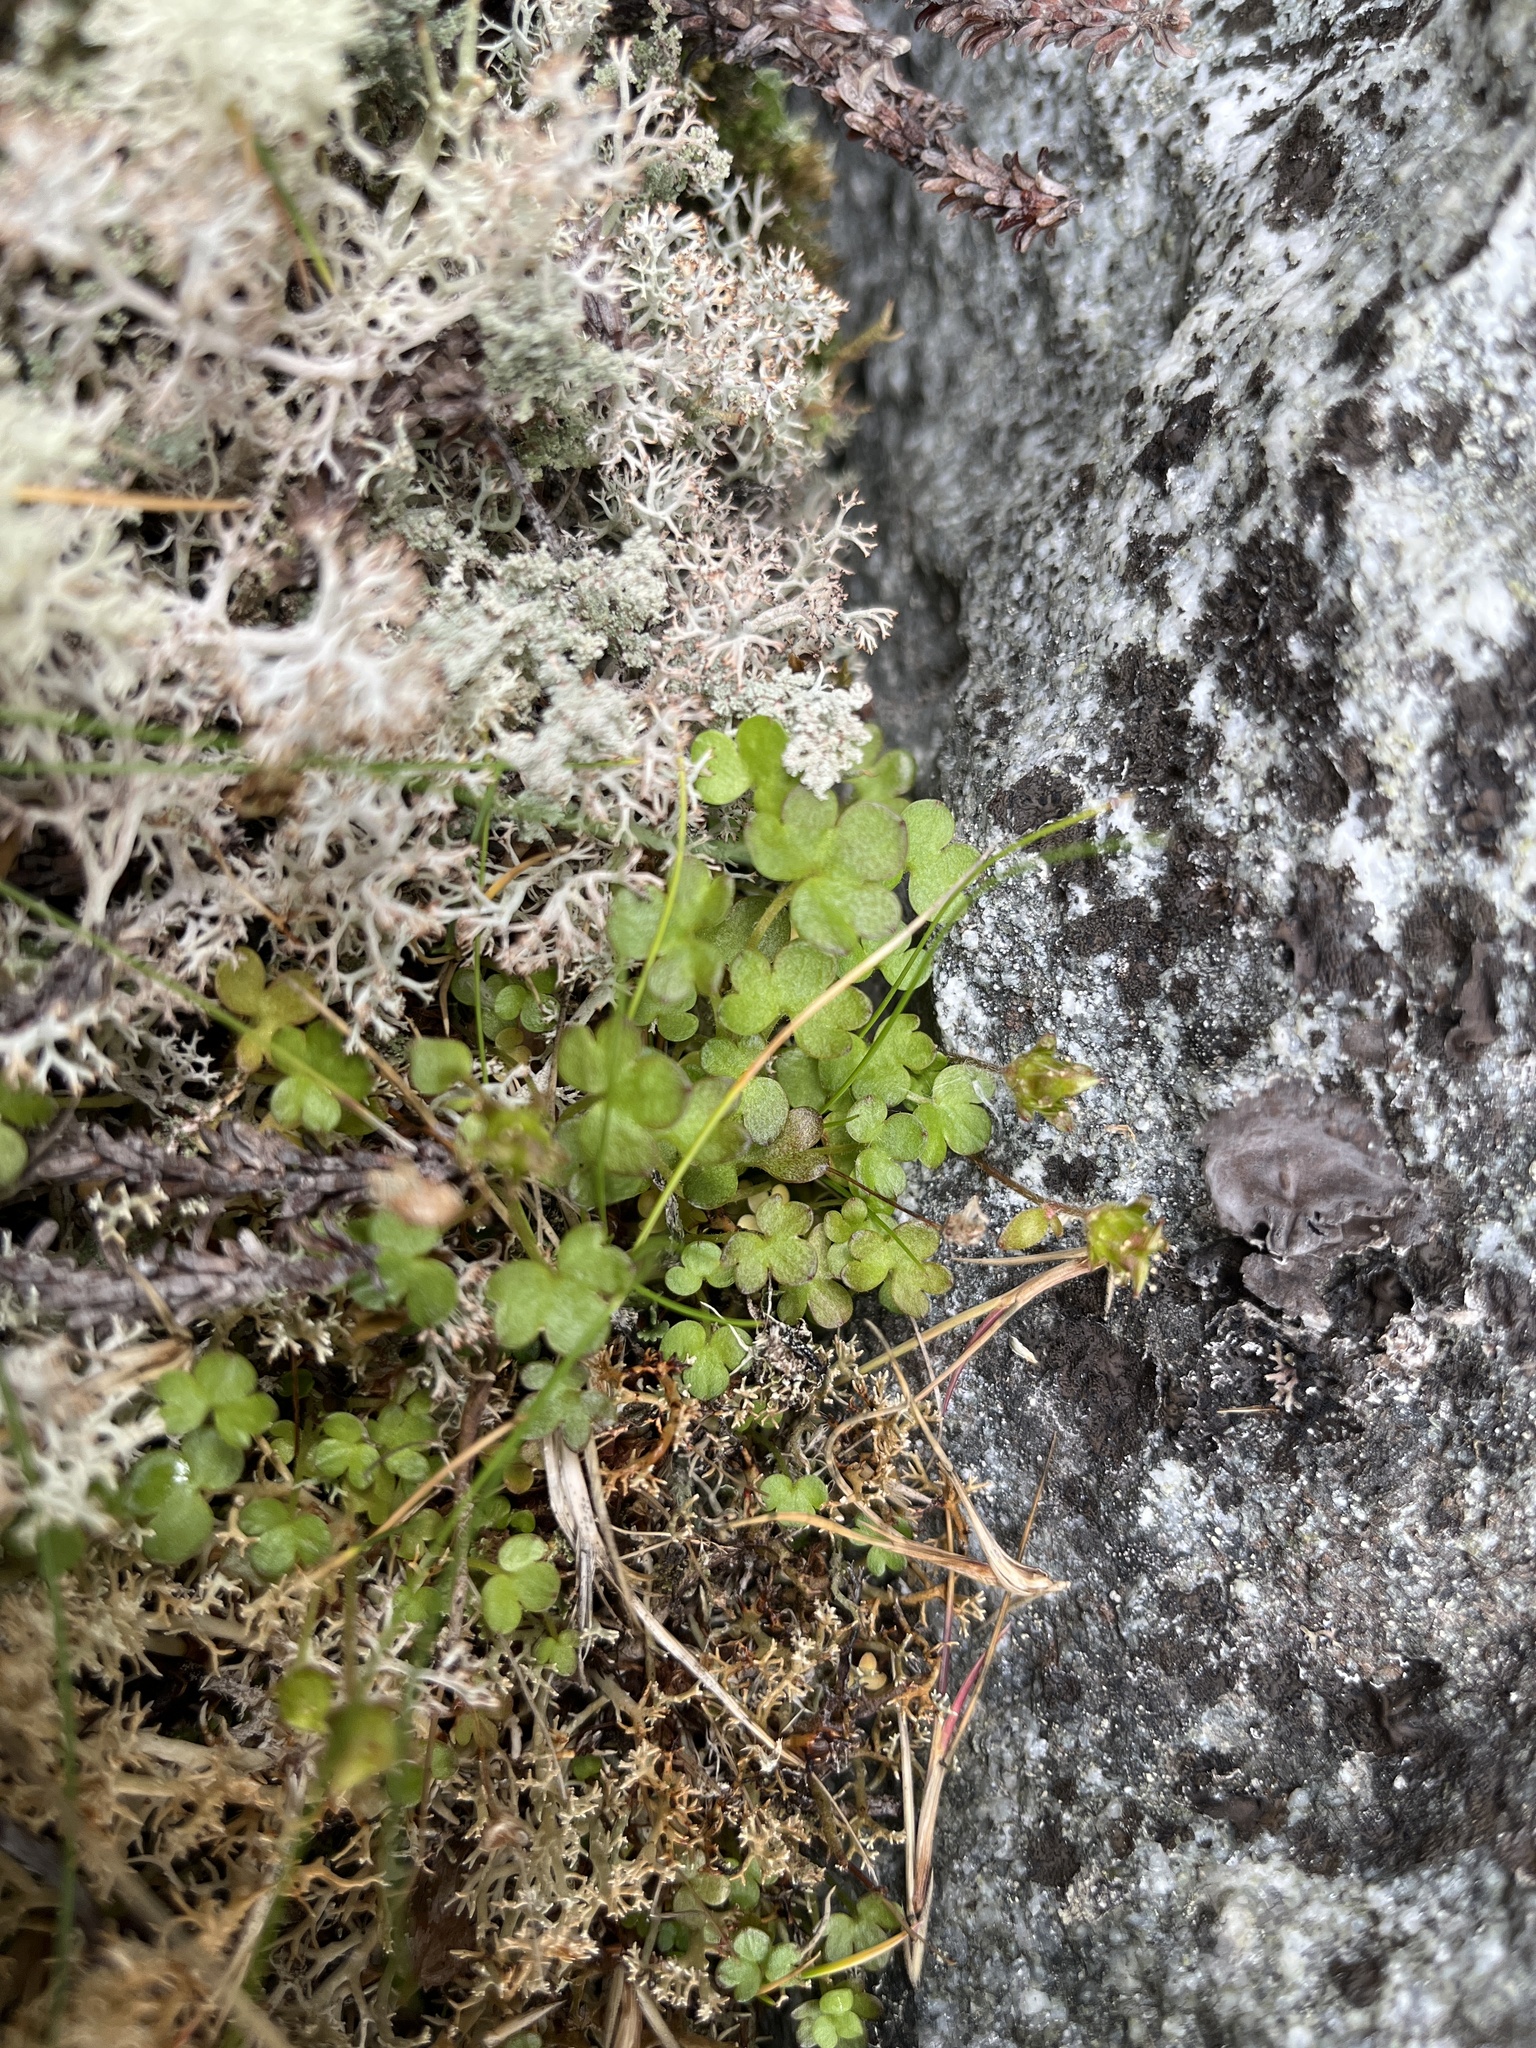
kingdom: Plantae
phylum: Tracheophyta
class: Magnoliopsida
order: Saxifragales
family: Saxifragaceae
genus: Saxifraga
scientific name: Saxifraga rivularis
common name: Highland saxifrage
